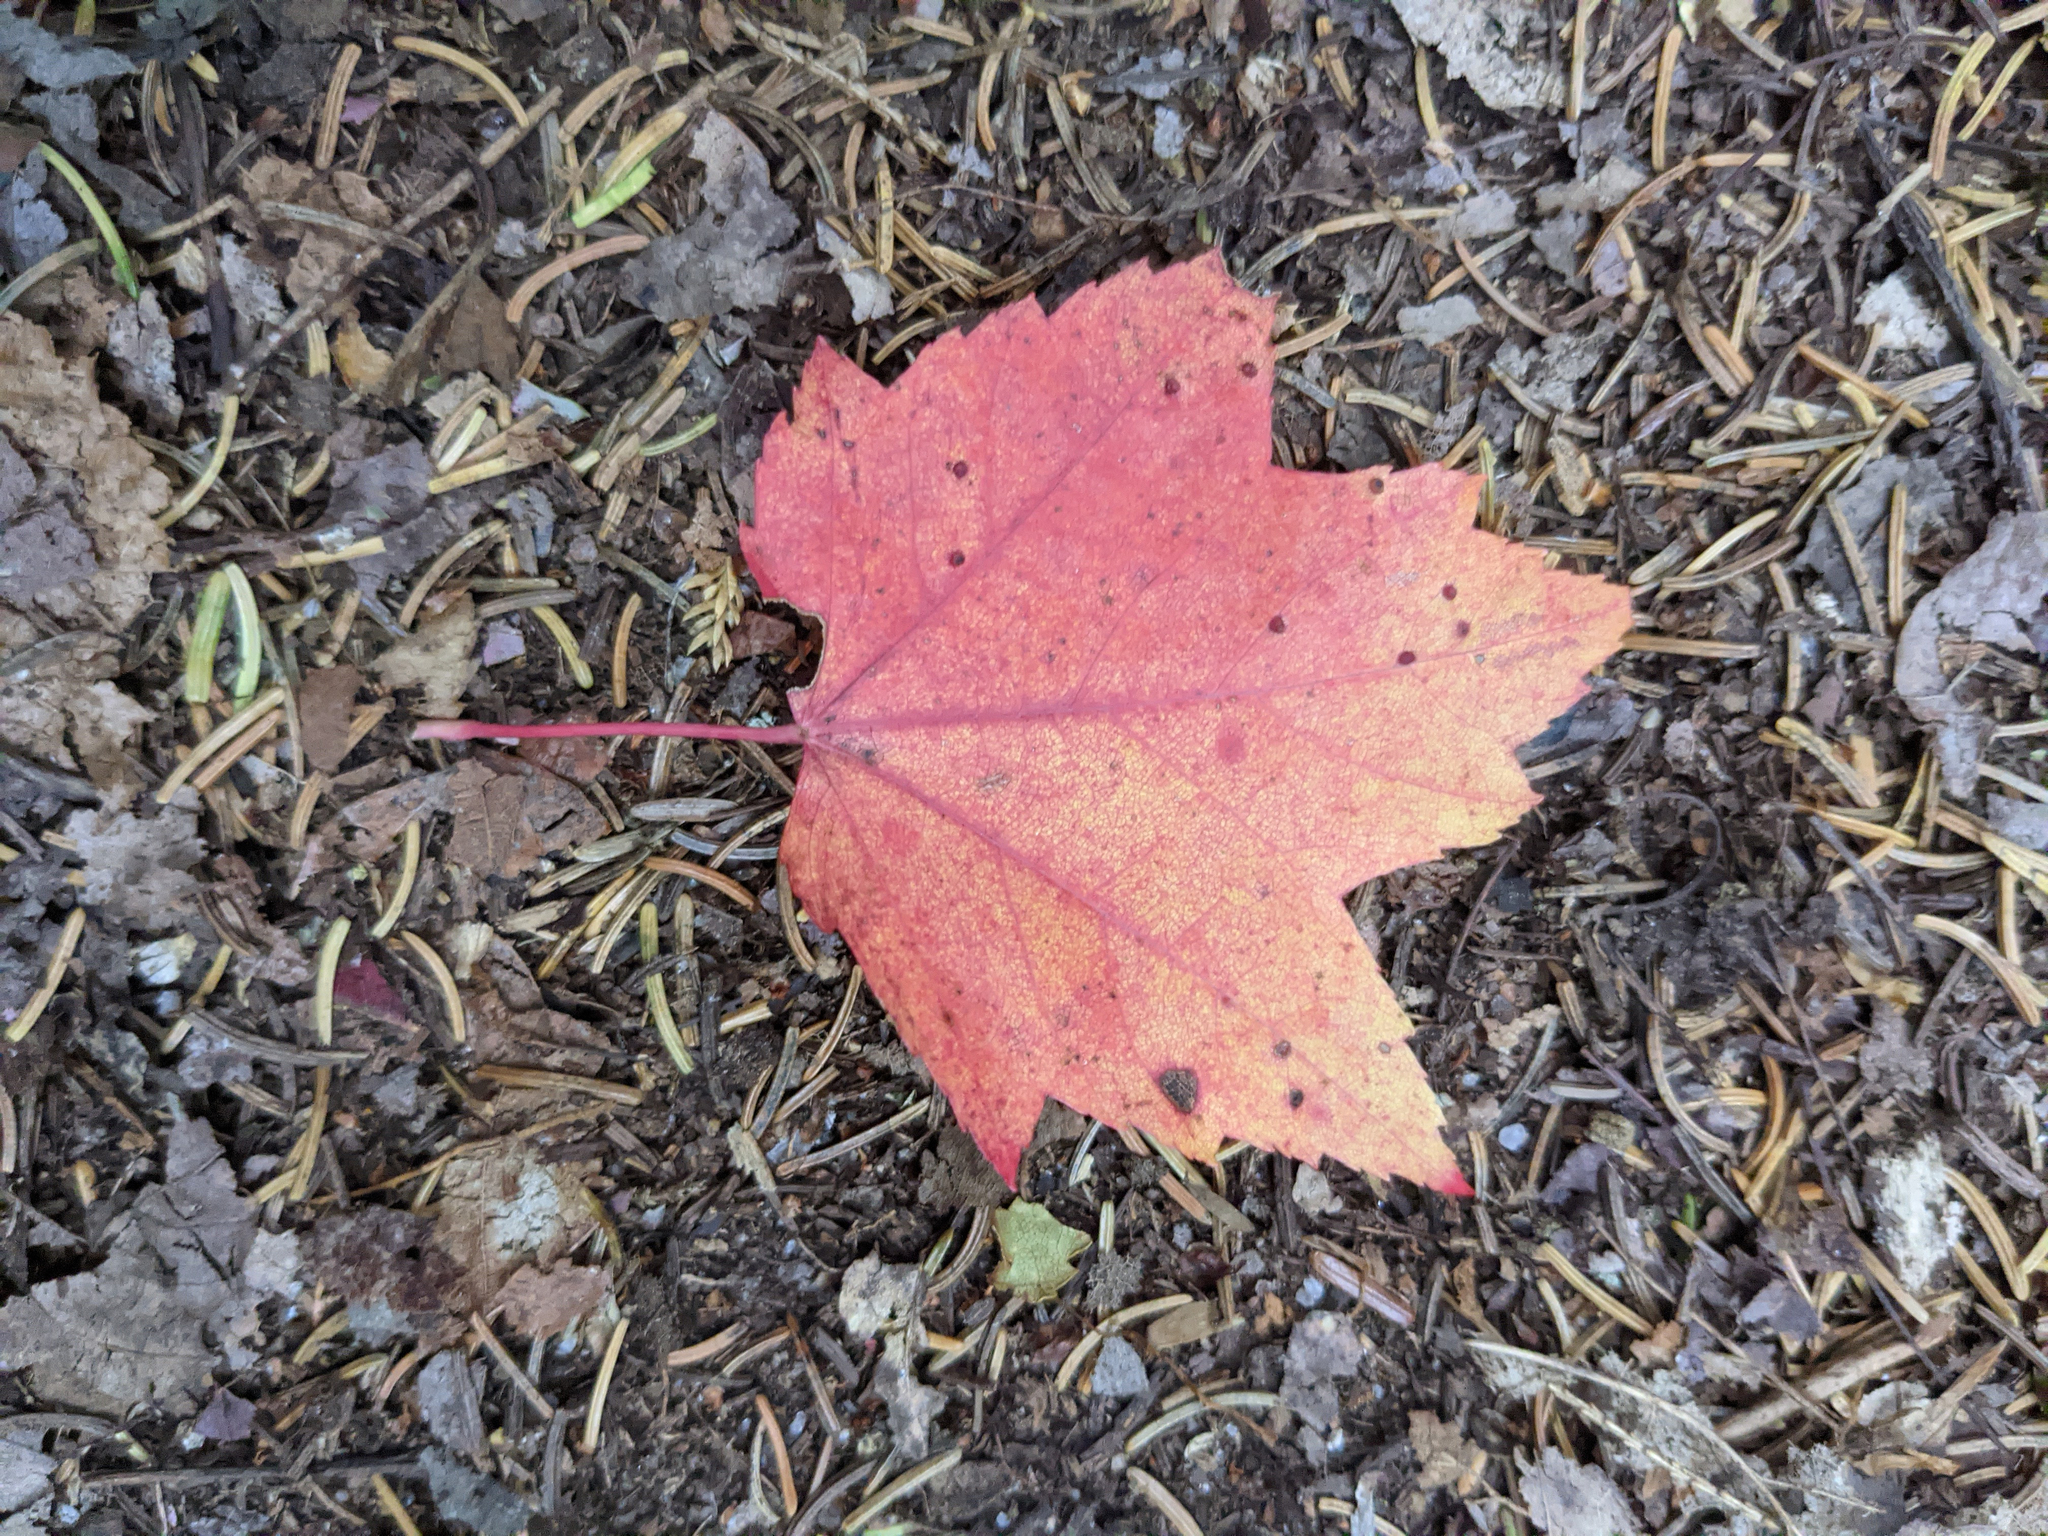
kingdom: Plantae
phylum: Tracheophyta
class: Magnoliopsida
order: Sapindales
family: Sapindaceae
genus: Acer
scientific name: Acer rubrum
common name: Red maple
